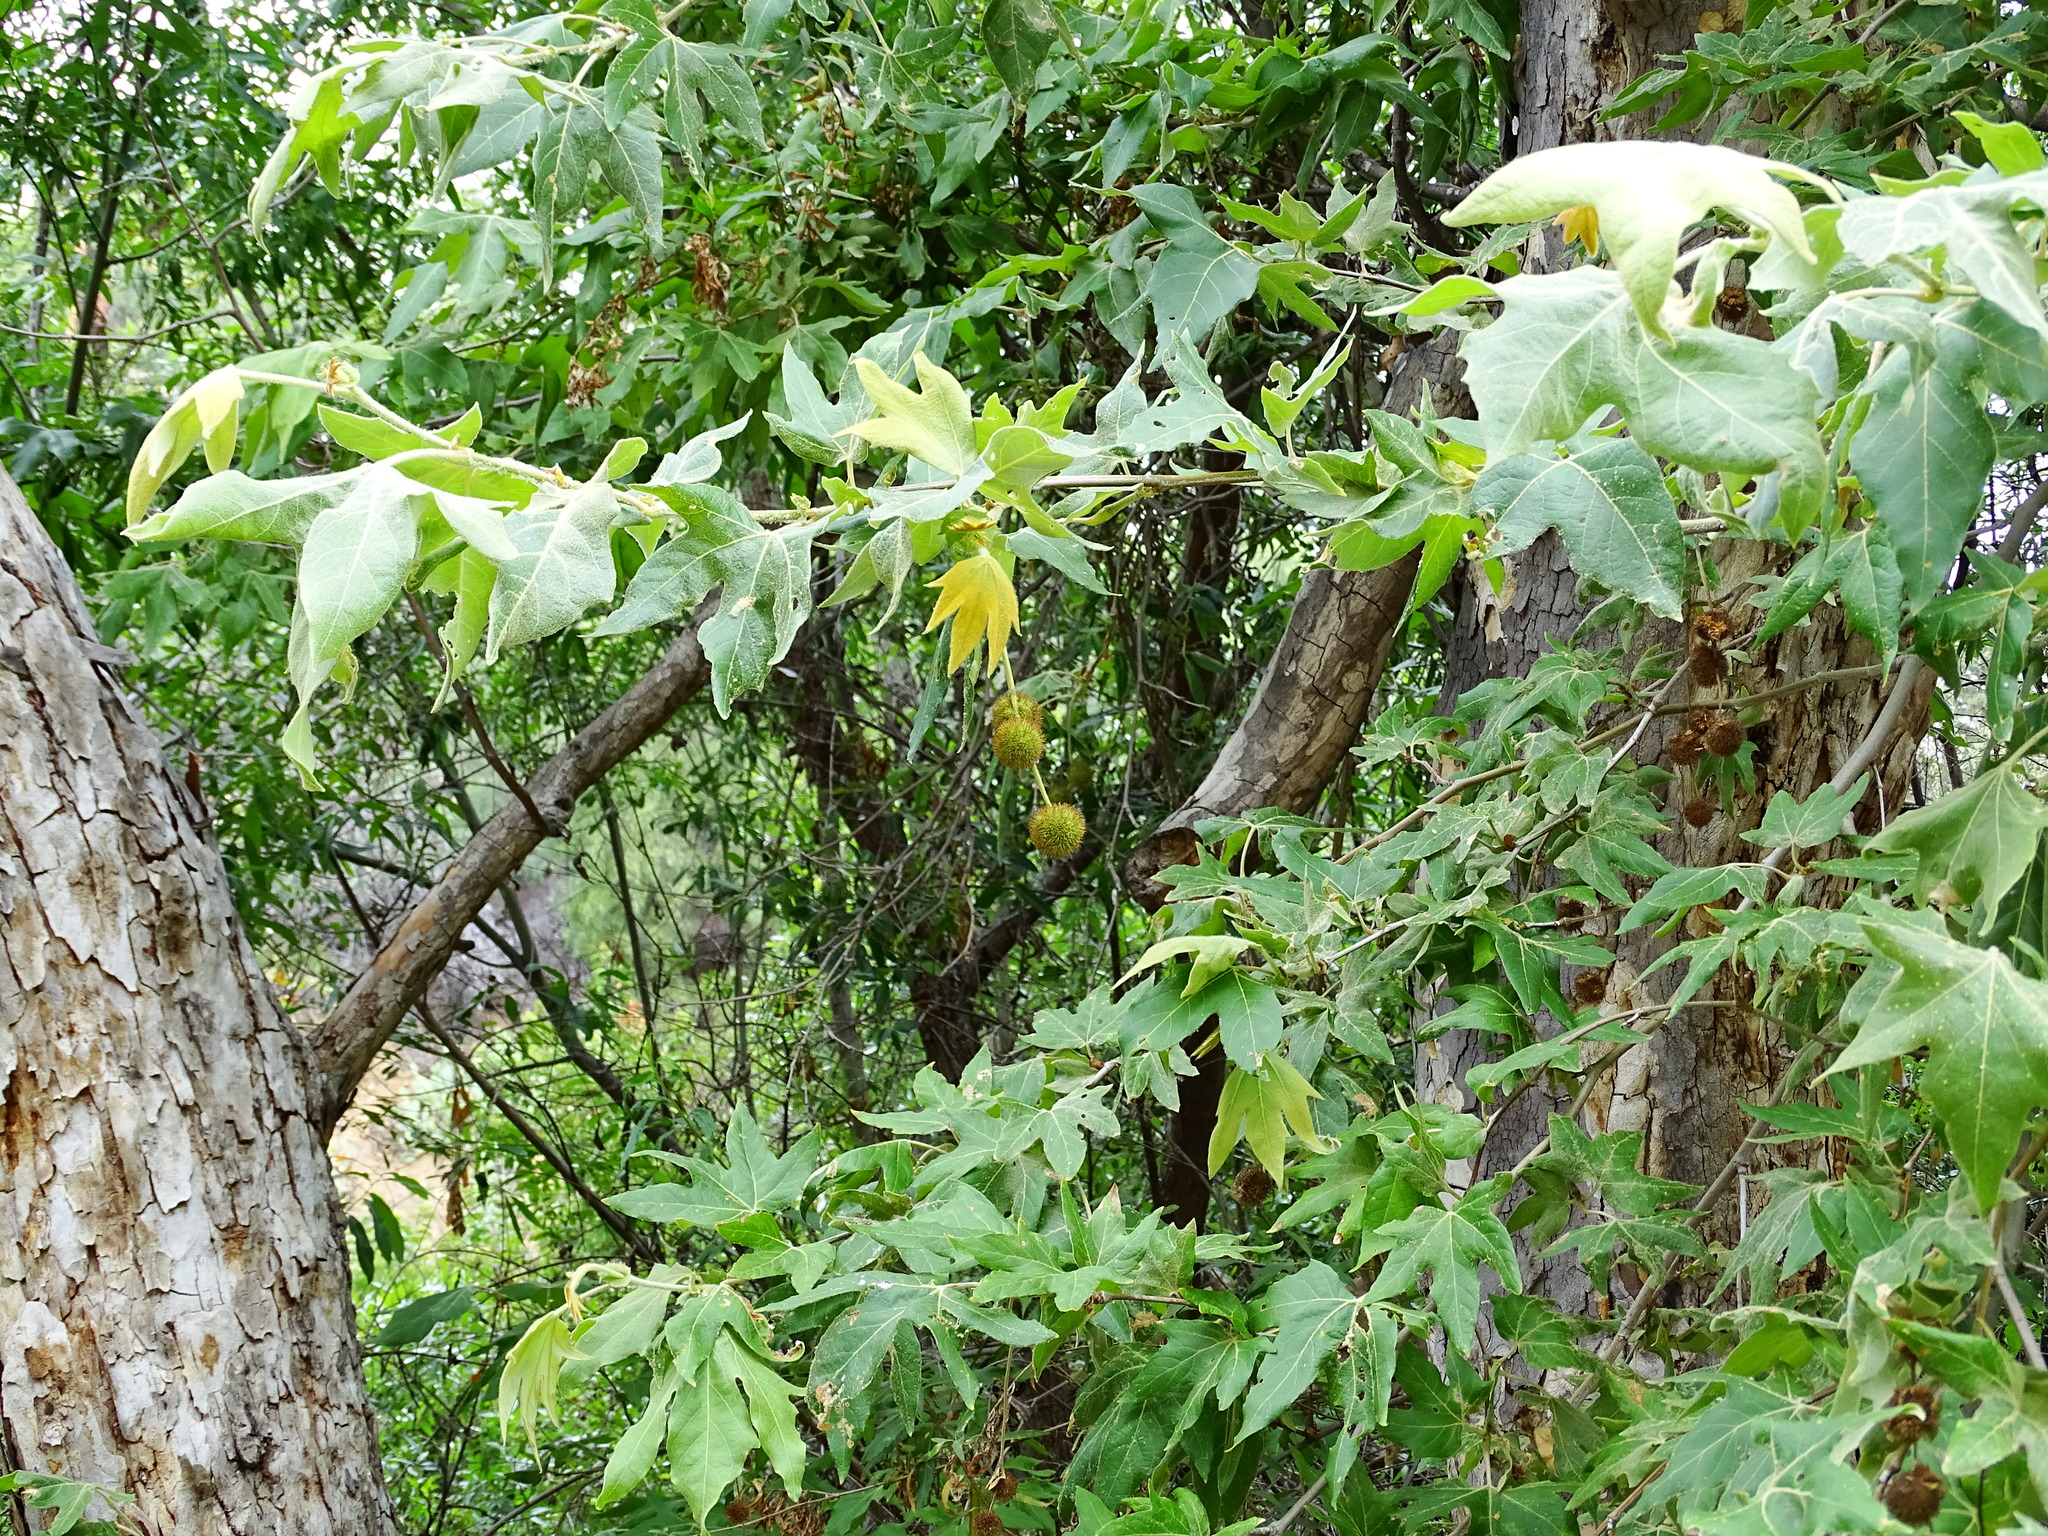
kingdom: Plantae
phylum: Tracheophyta
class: Magnoliopsida
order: Proteales
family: Platanaceae
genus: Platanus
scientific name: Platanus racemosa
